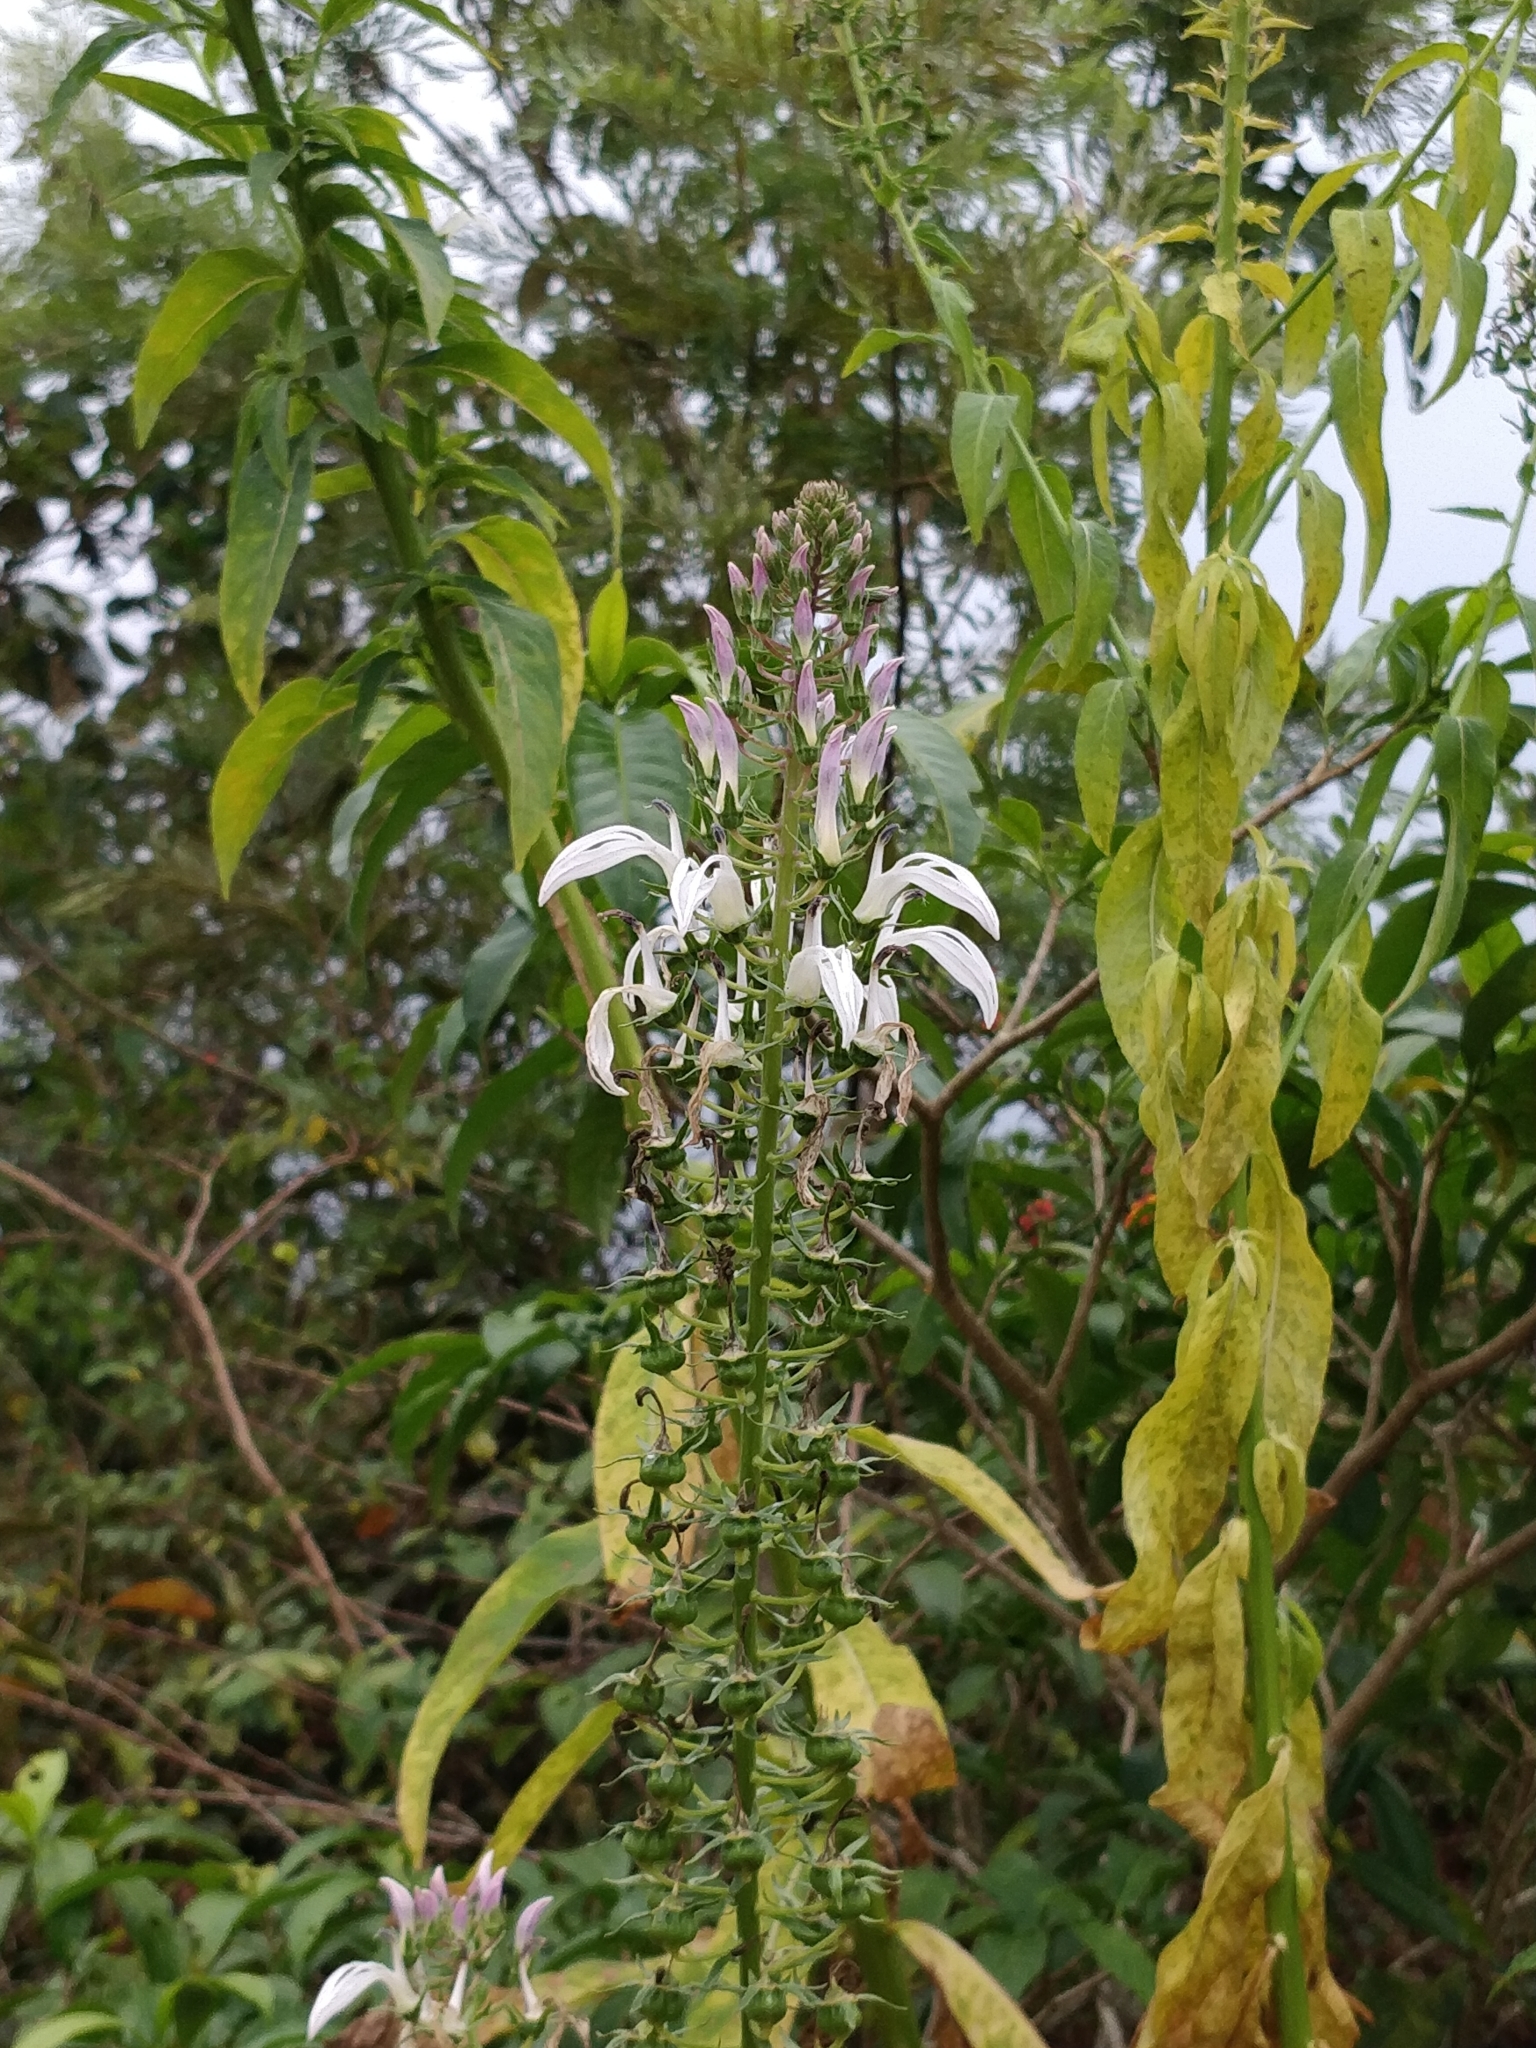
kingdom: Plantae
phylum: Tracheophyta
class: Magnoliopsida
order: Asterales
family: Campanulaceae
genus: Lobelia
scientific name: Lobelia nicotianifolia
